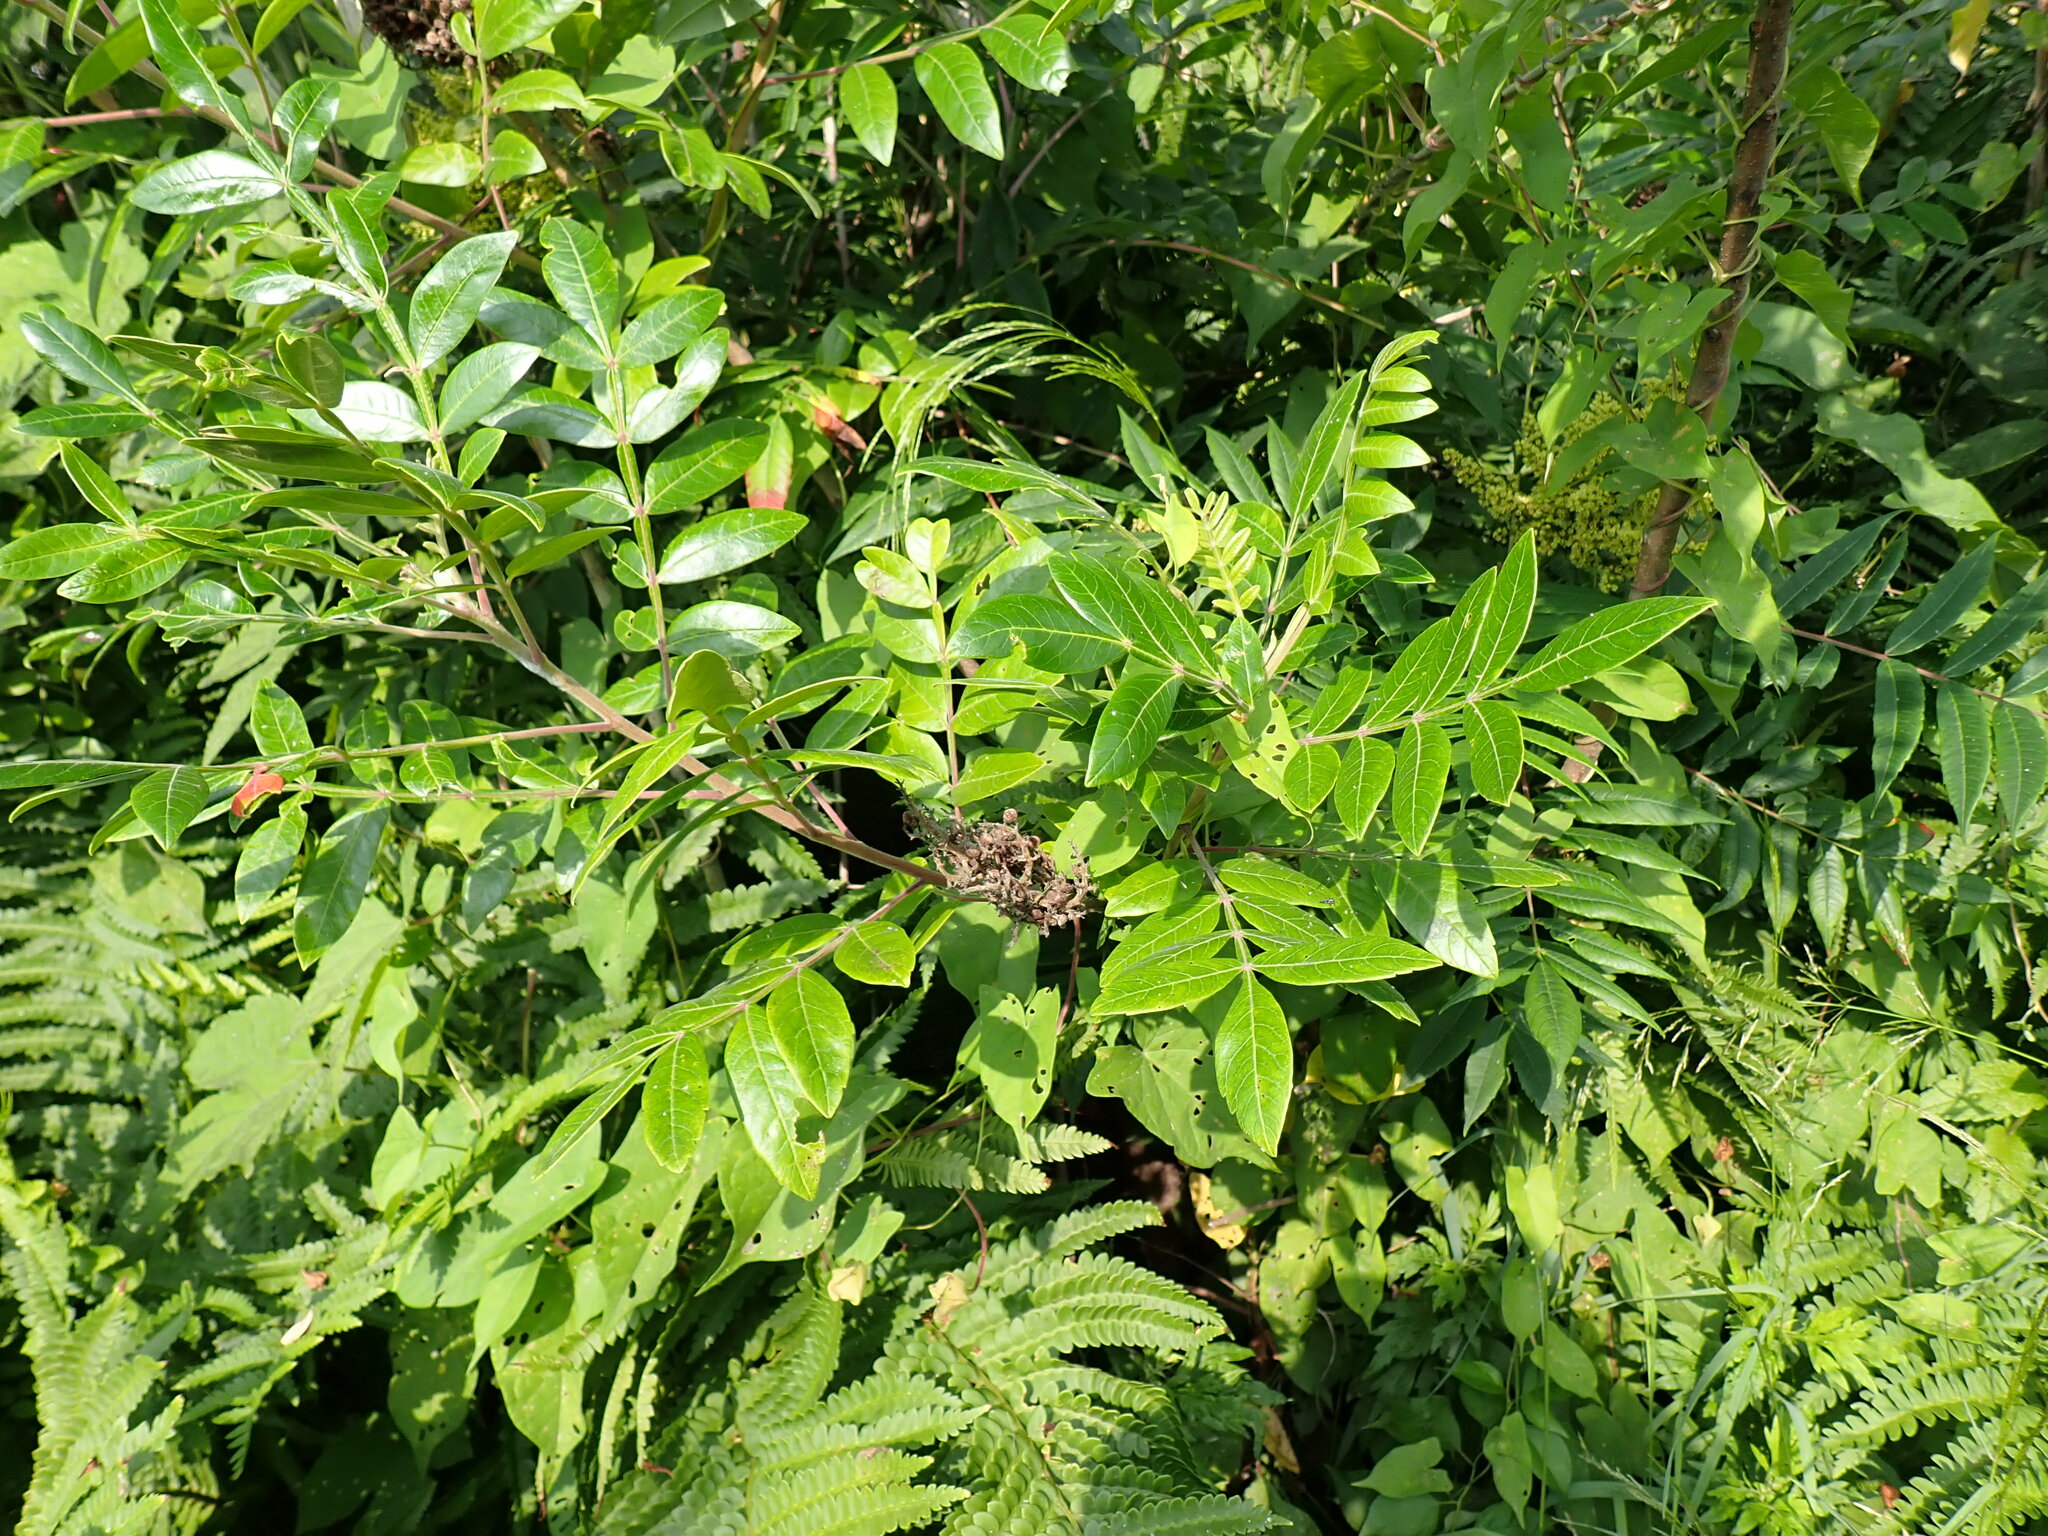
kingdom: Plantae
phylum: Tracheophyta
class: Magnoliopsida
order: Sapindales
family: Anacardiaceae
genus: Rhus
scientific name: Rhus copallina
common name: Shining sumac
